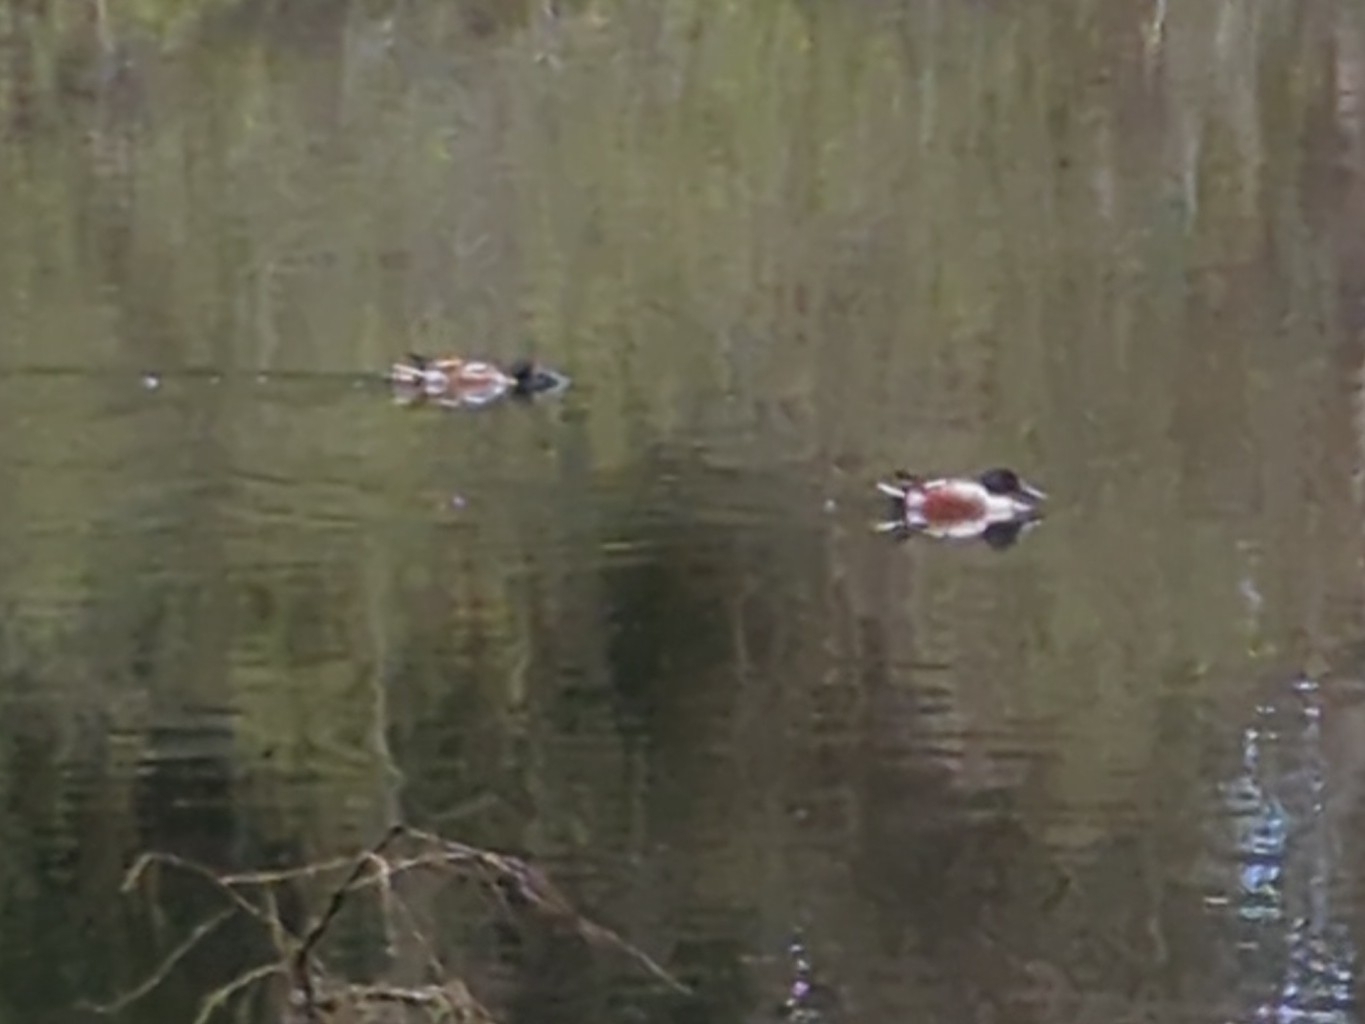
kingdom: Animalia
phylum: Chordata
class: Aves
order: Anseriformes
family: Anatidae
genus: Spatula
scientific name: Spatula clypeata
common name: Northern shoveler
